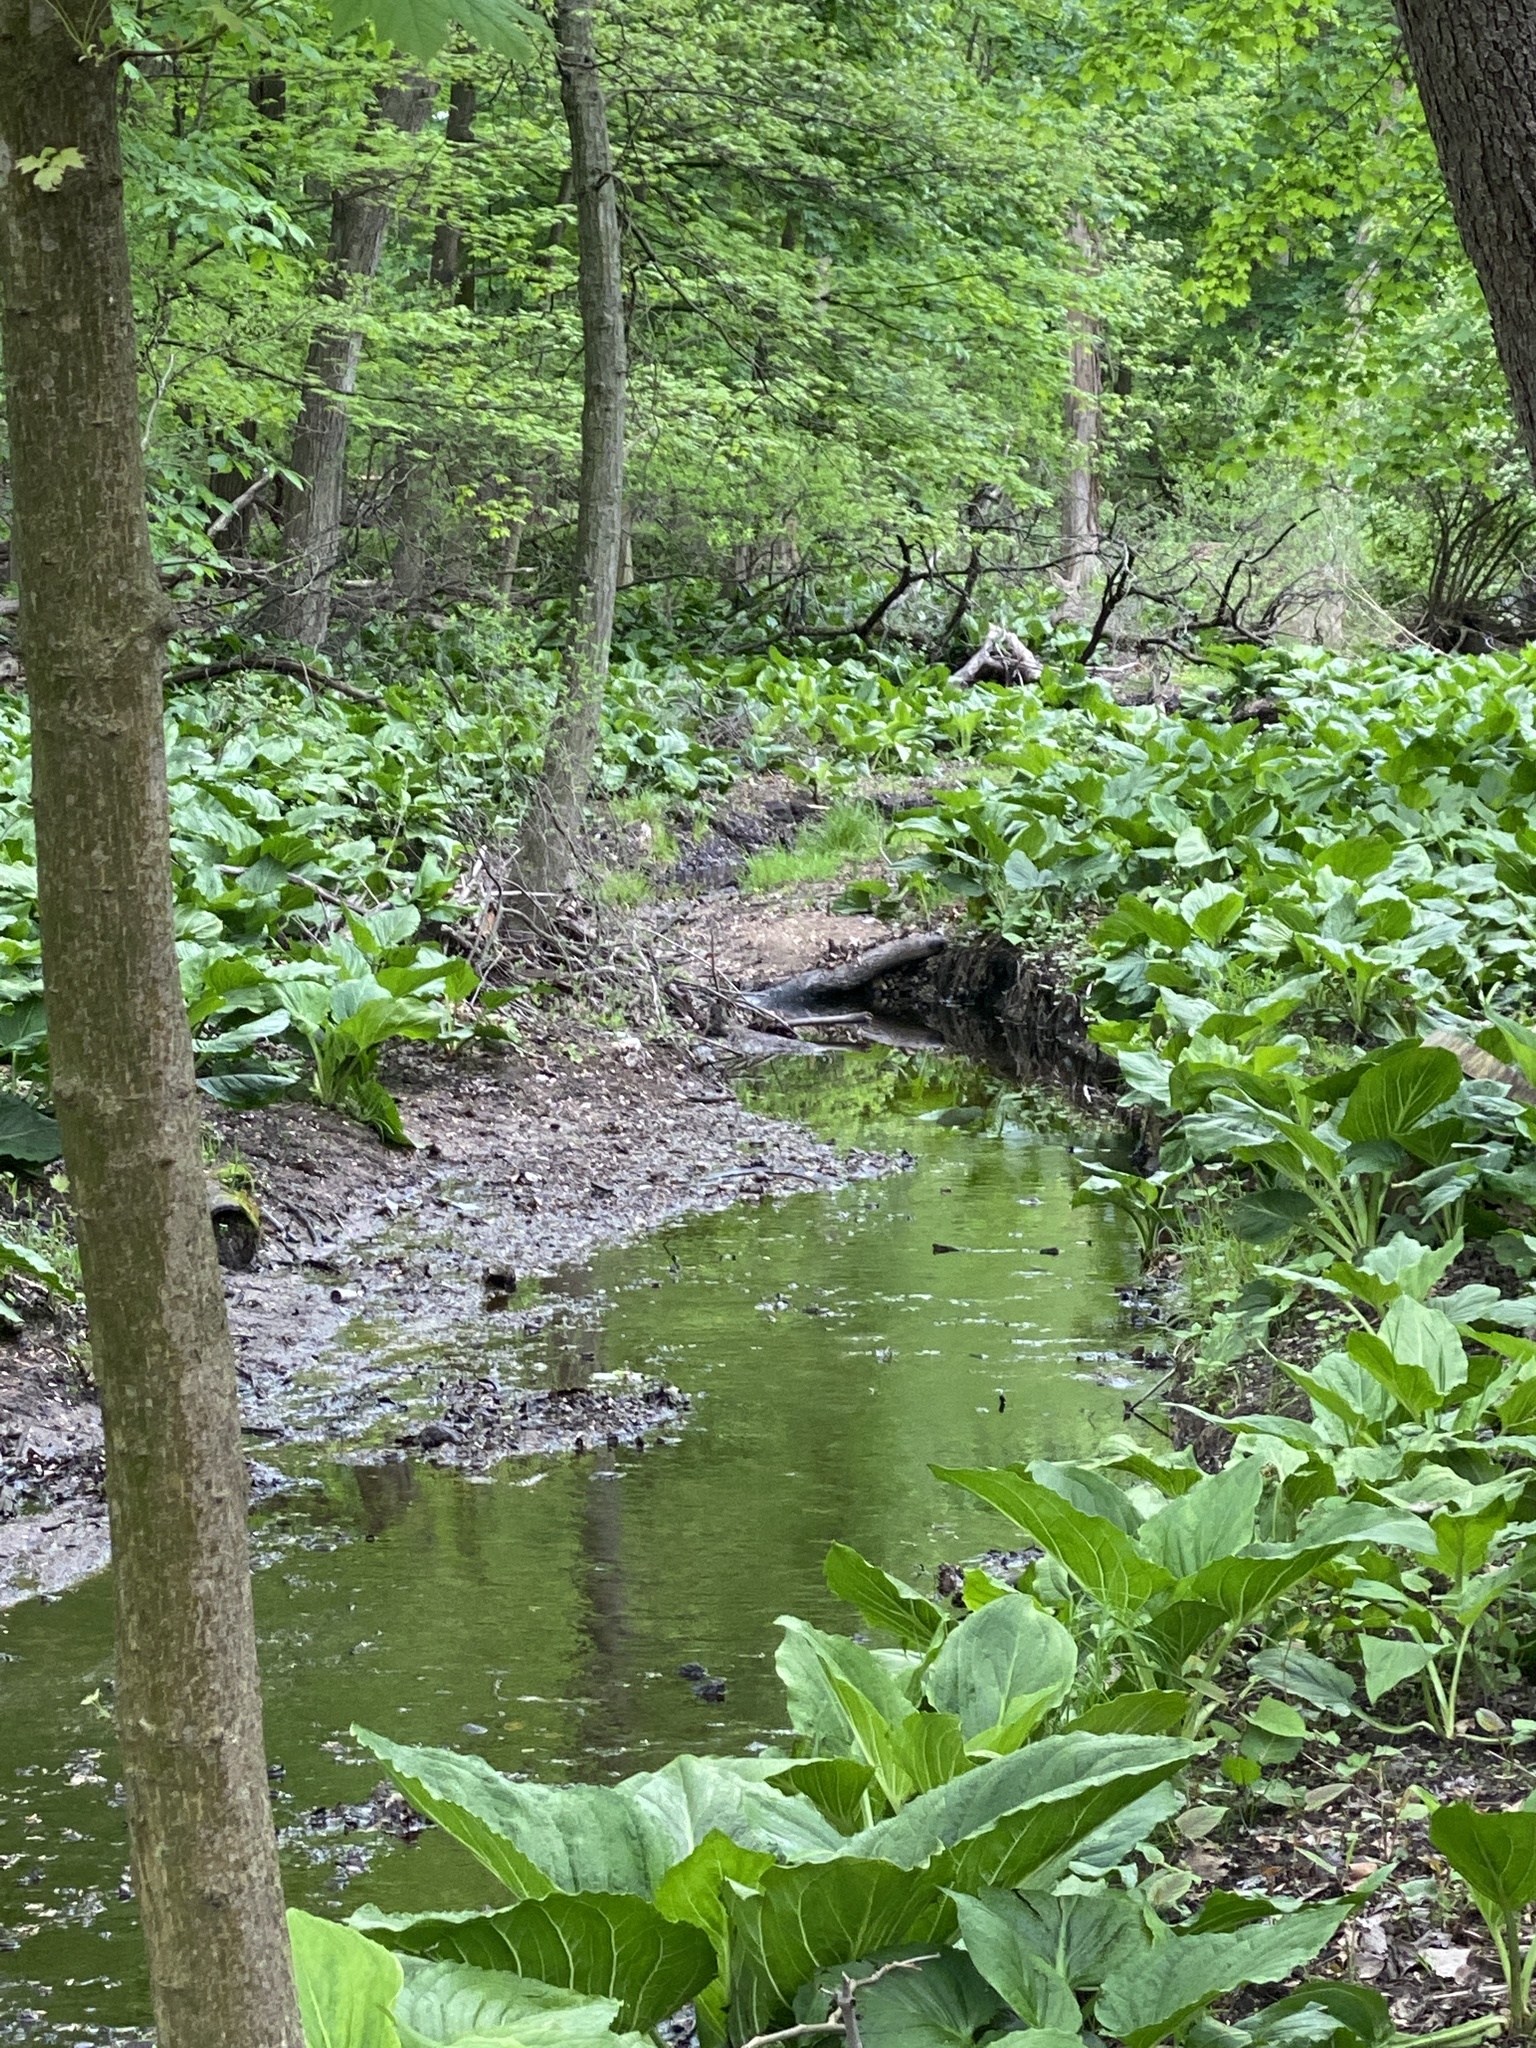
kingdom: Plantae
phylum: Tracheophyta
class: Liliopsida
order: Alismatales
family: Araceae
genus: Symplocarpus
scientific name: Symplocarpus foetidus
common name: Eastern skunk cabbage
